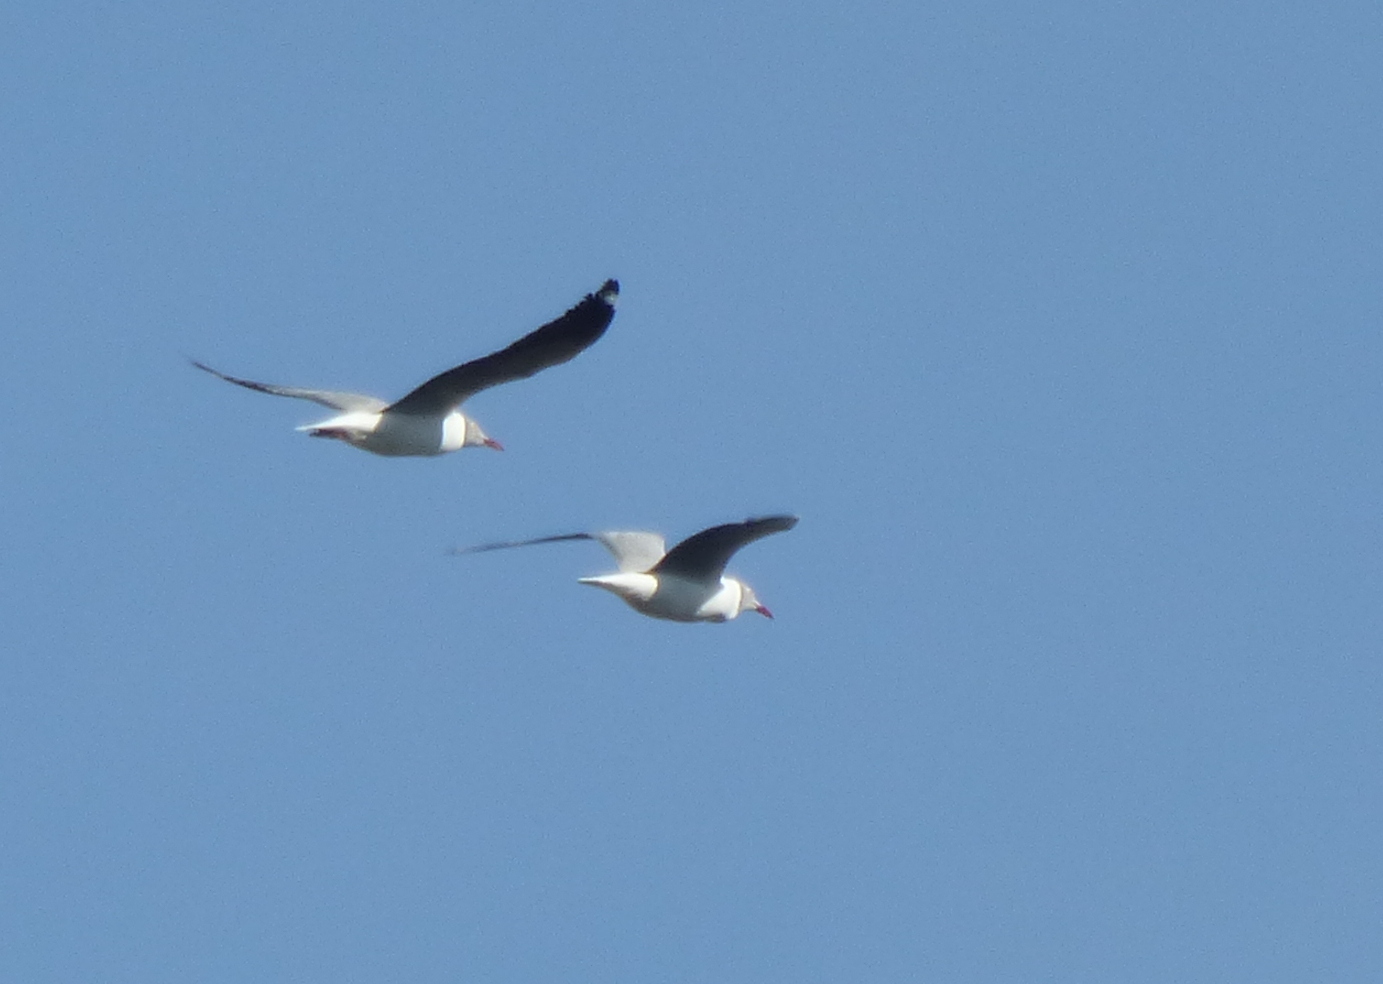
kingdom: Animalia
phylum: Chordata
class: Aves
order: Charadriiformes
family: Laridae
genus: Chroicocephalus
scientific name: Chroicocephalus cirrocephalus
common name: Grey-headed gull
